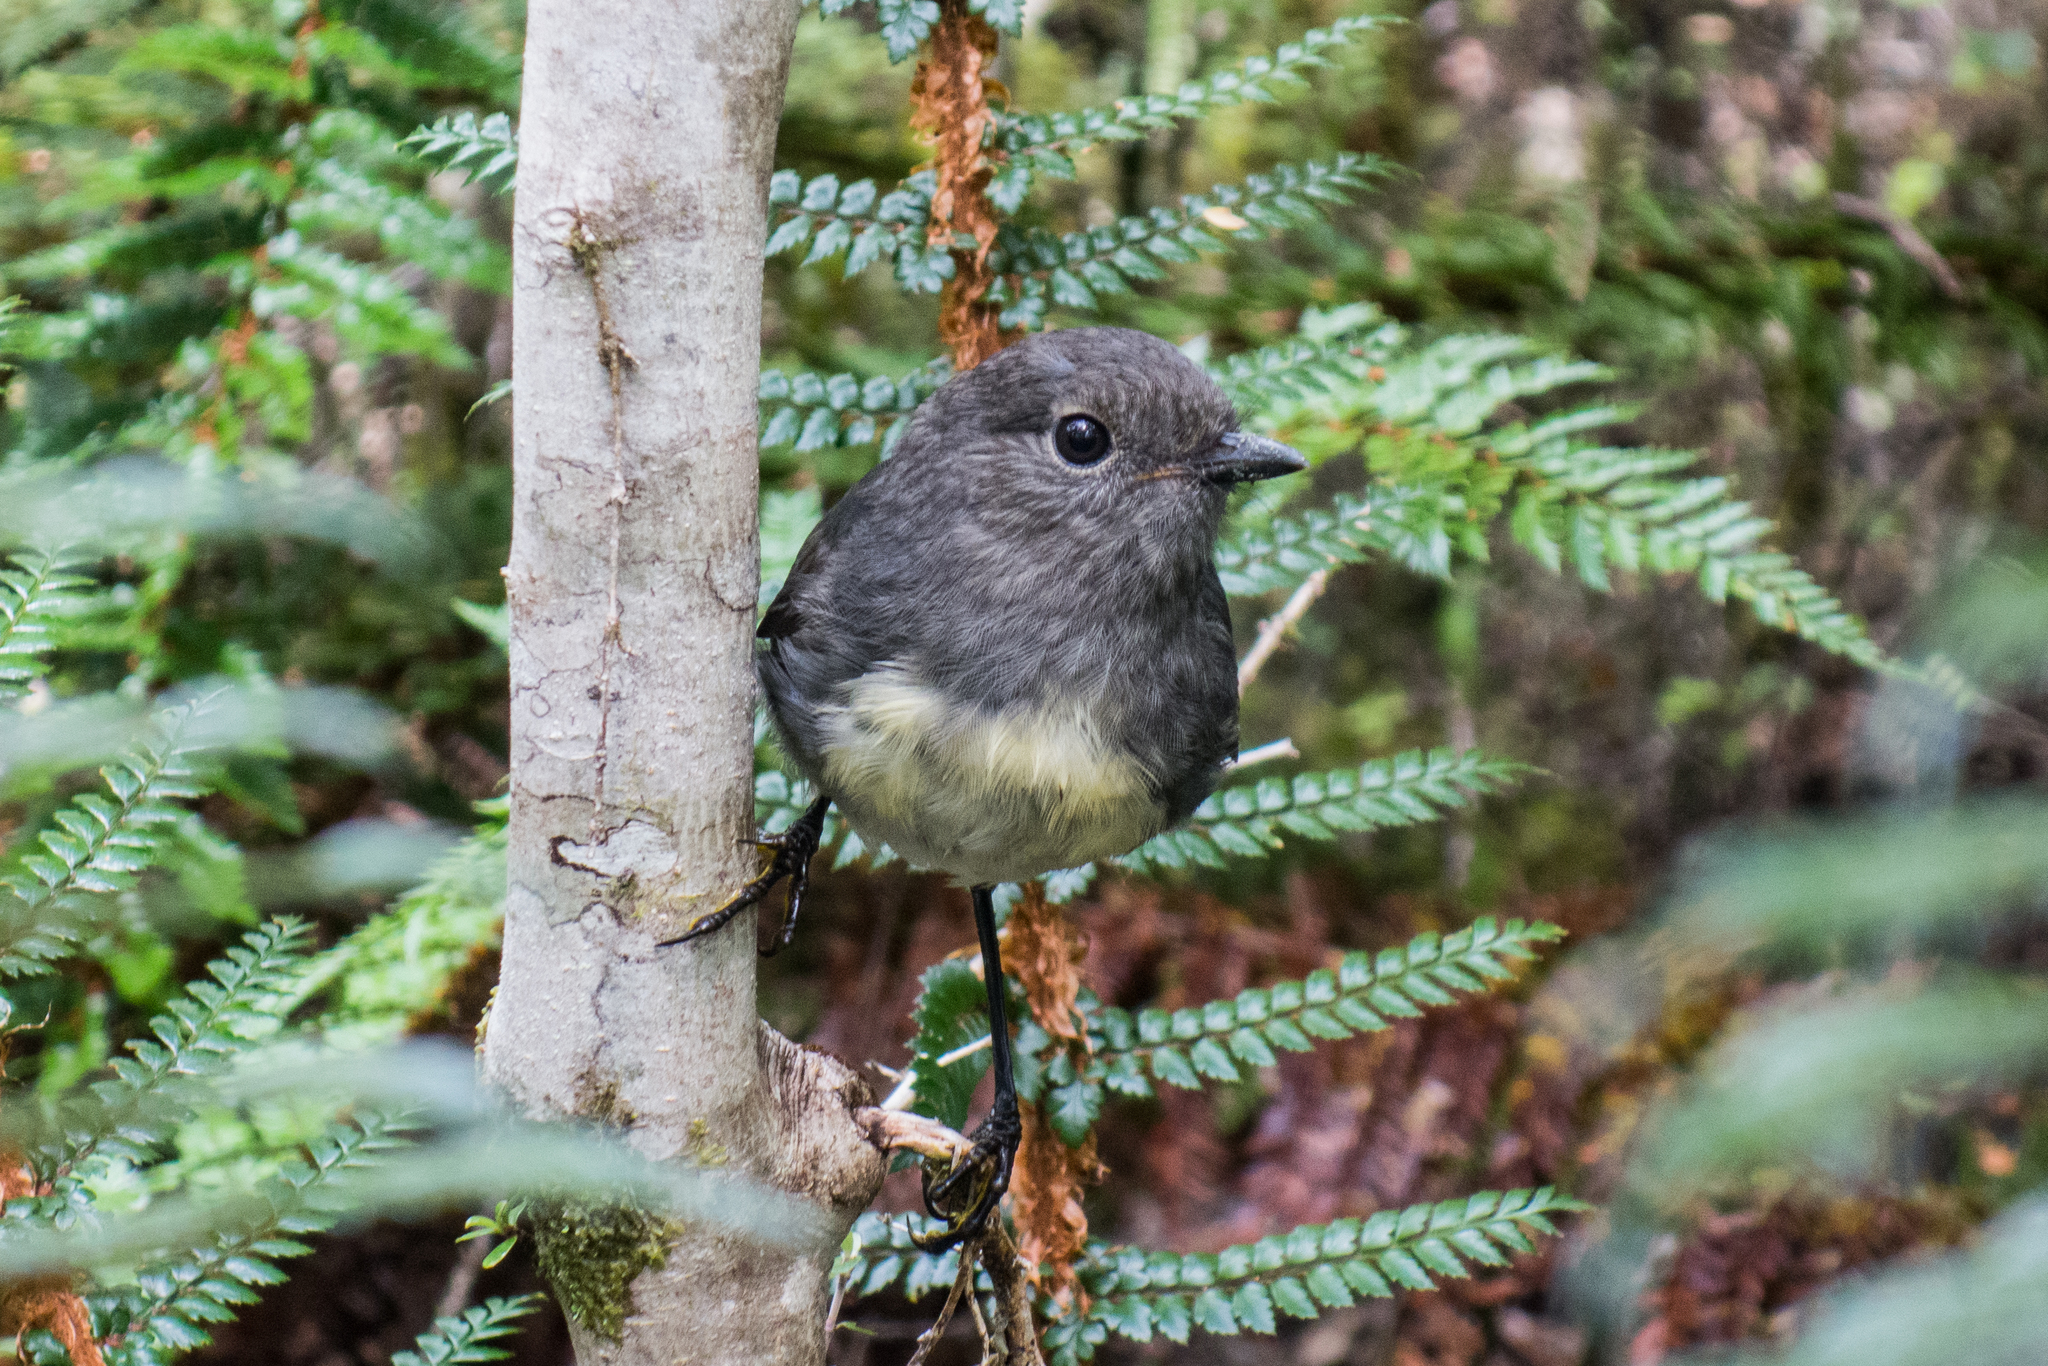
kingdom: Animalia
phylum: Chordata
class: Aves
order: Passeriformes
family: Petroicidae
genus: Petroica
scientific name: Petroica australis
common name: New zealand robin
